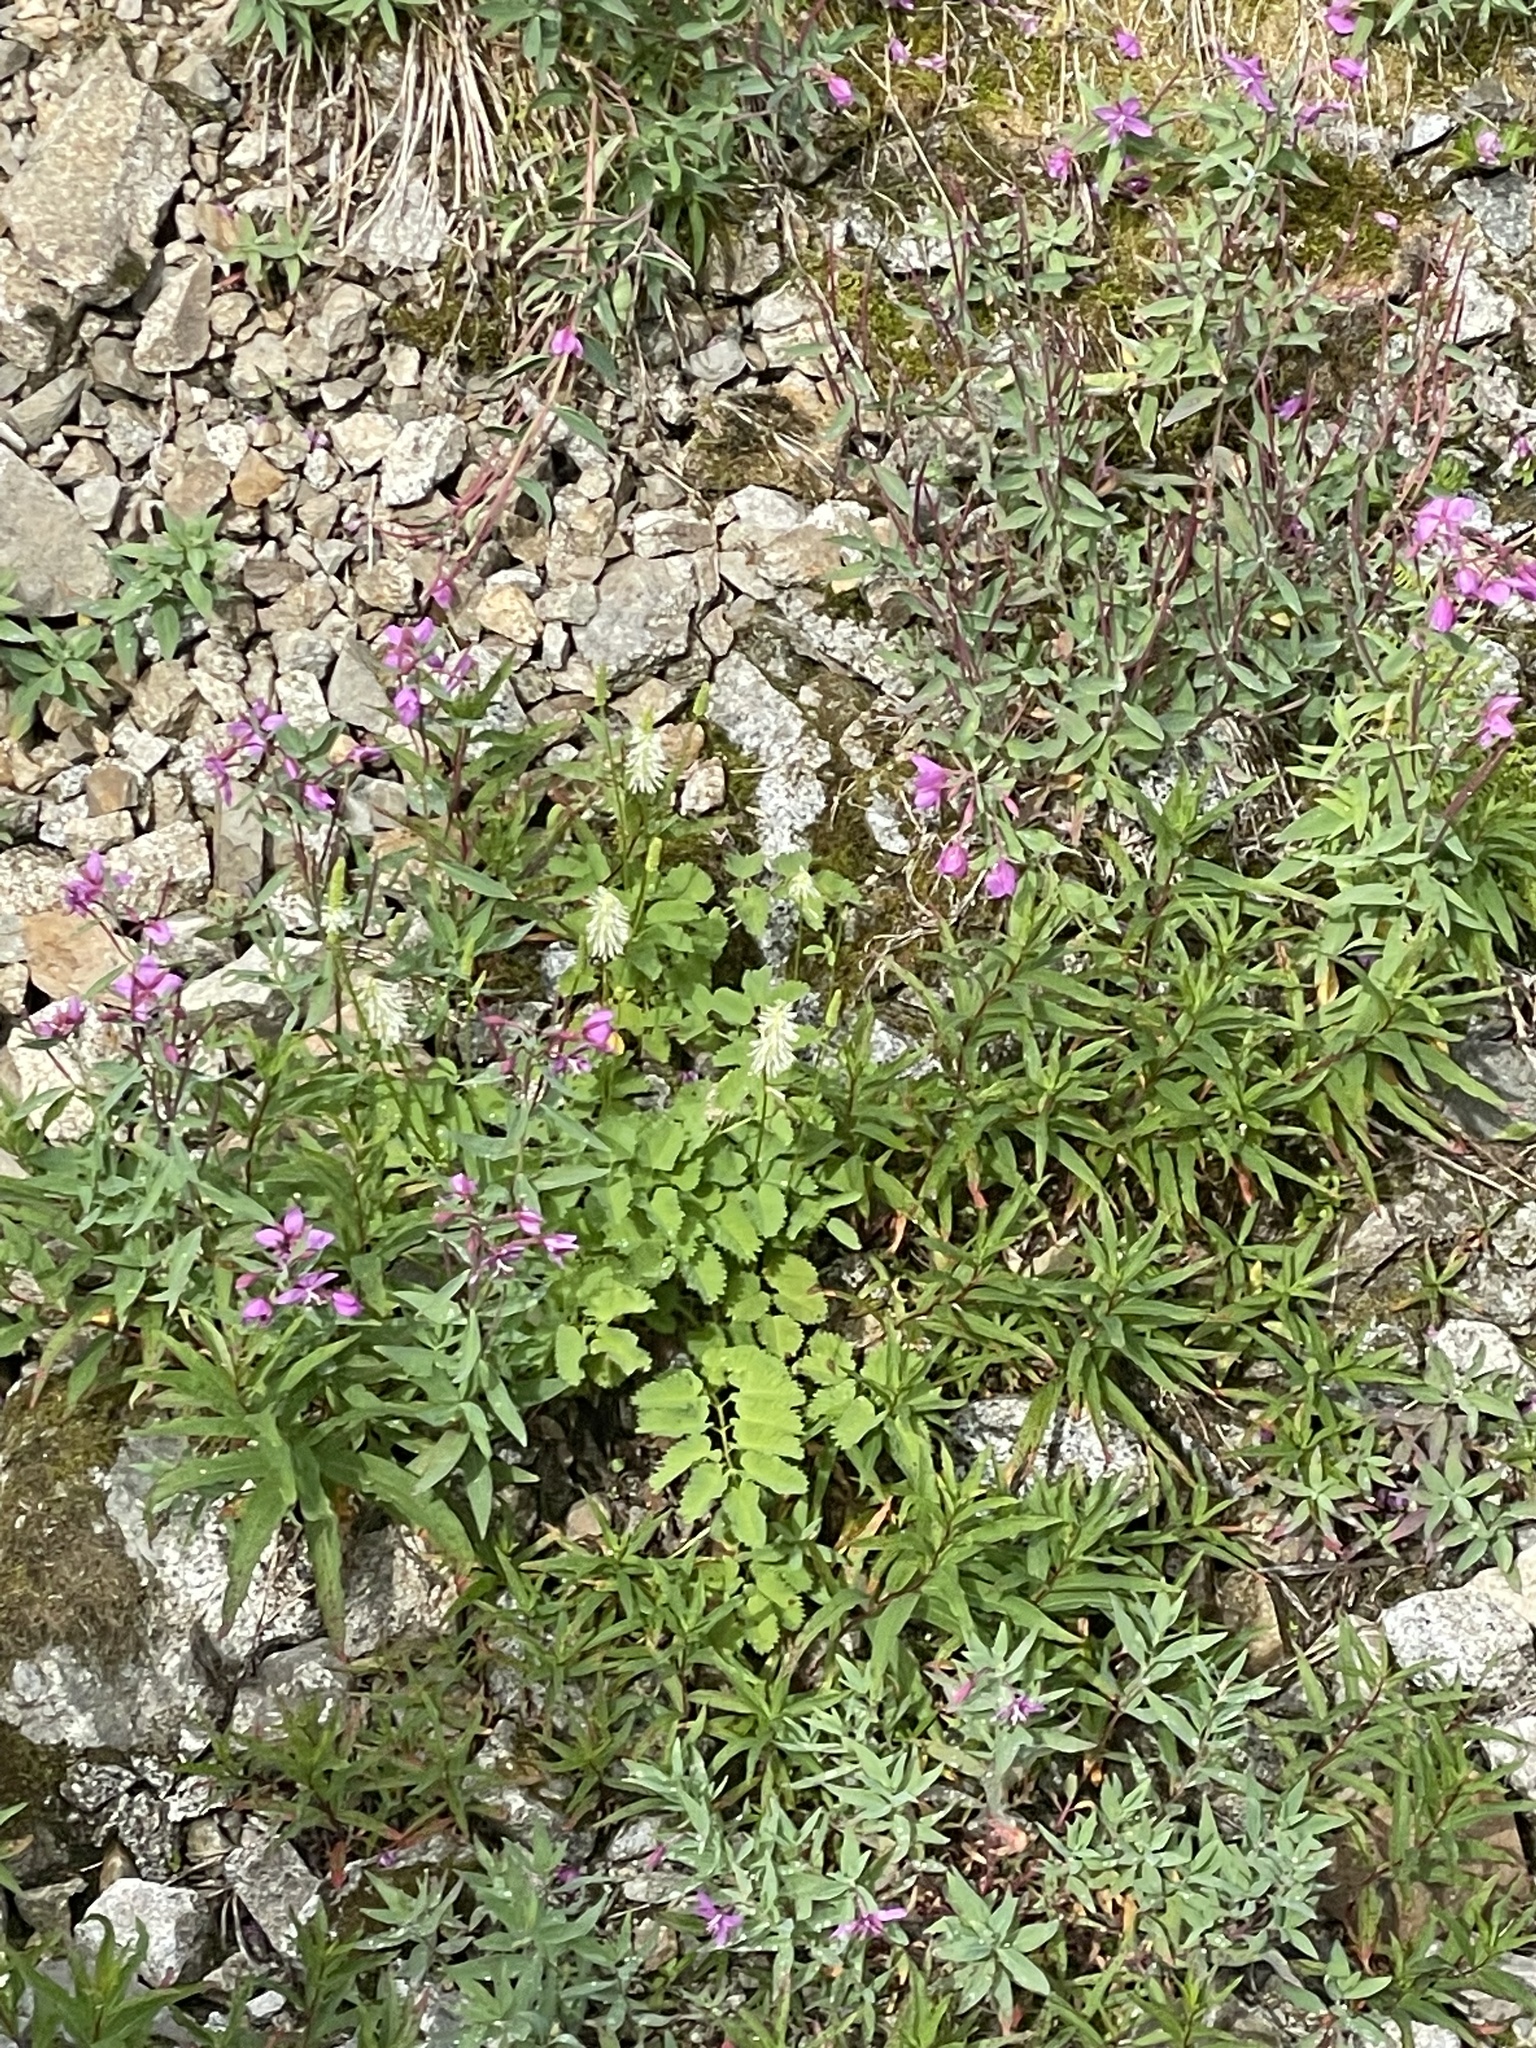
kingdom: Plantae
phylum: Tracheophyta
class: Magnoliopsida
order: Myrtales
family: Onagraceae
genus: Chamaenerion
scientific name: Chamaenerion angustifolium
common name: Fireweed
